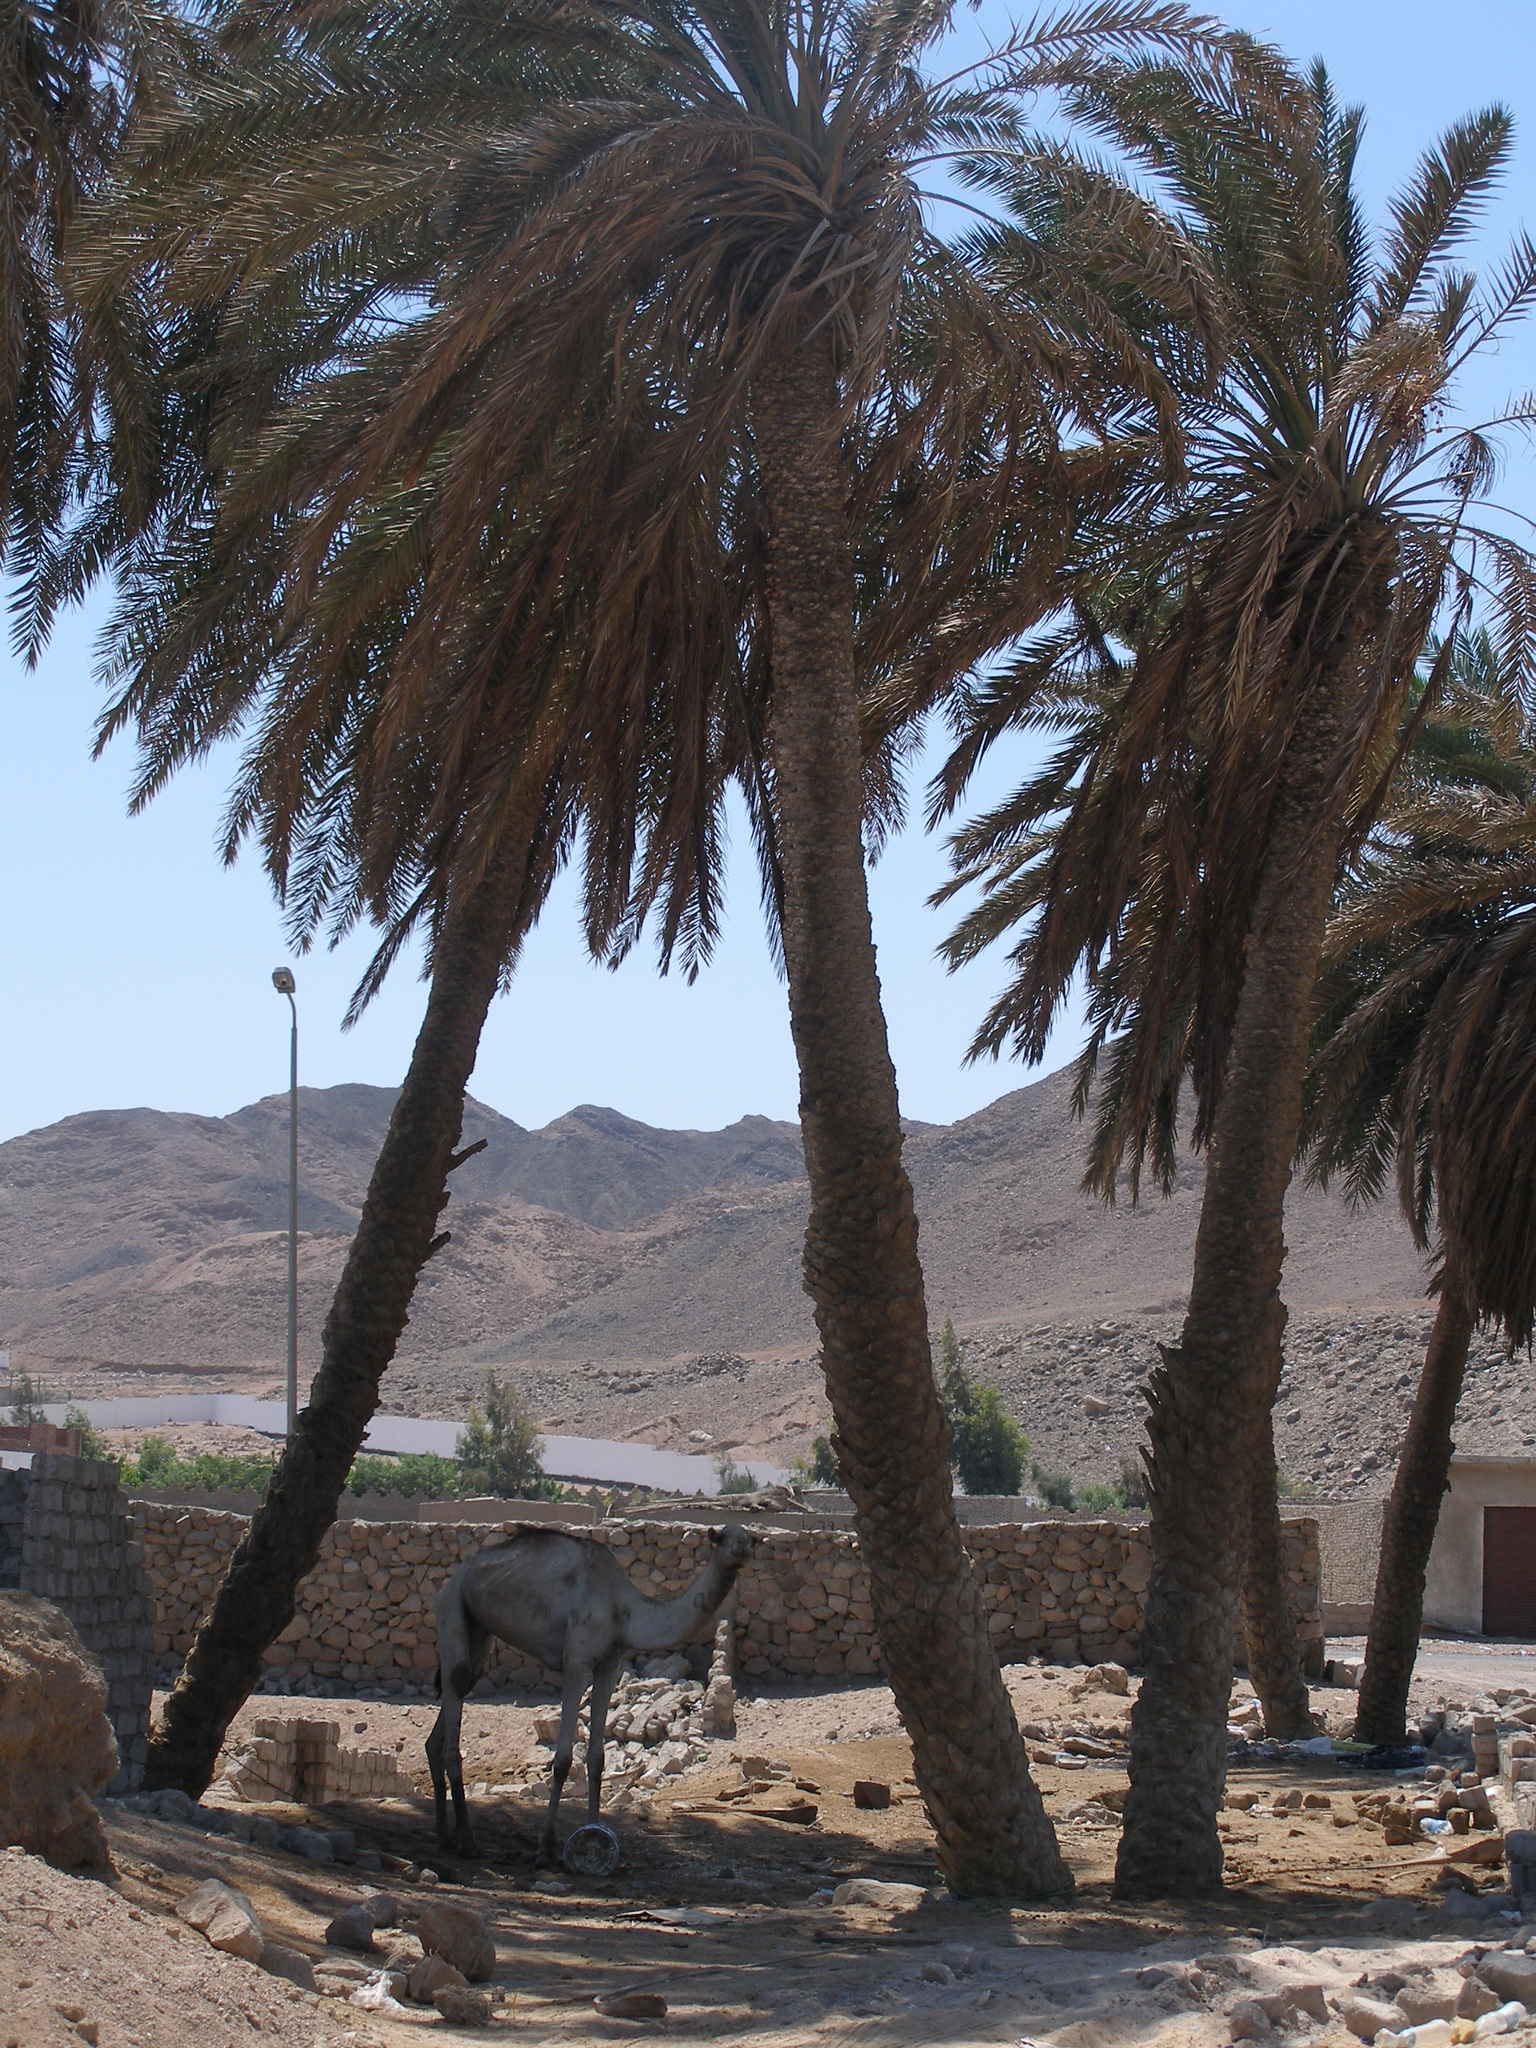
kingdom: Plantae
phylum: Tracheophyta
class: Liliopsida
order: Arecales
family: Arecaceae
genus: Phoenix
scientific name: Phoenix dactylifera
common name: Date palm
